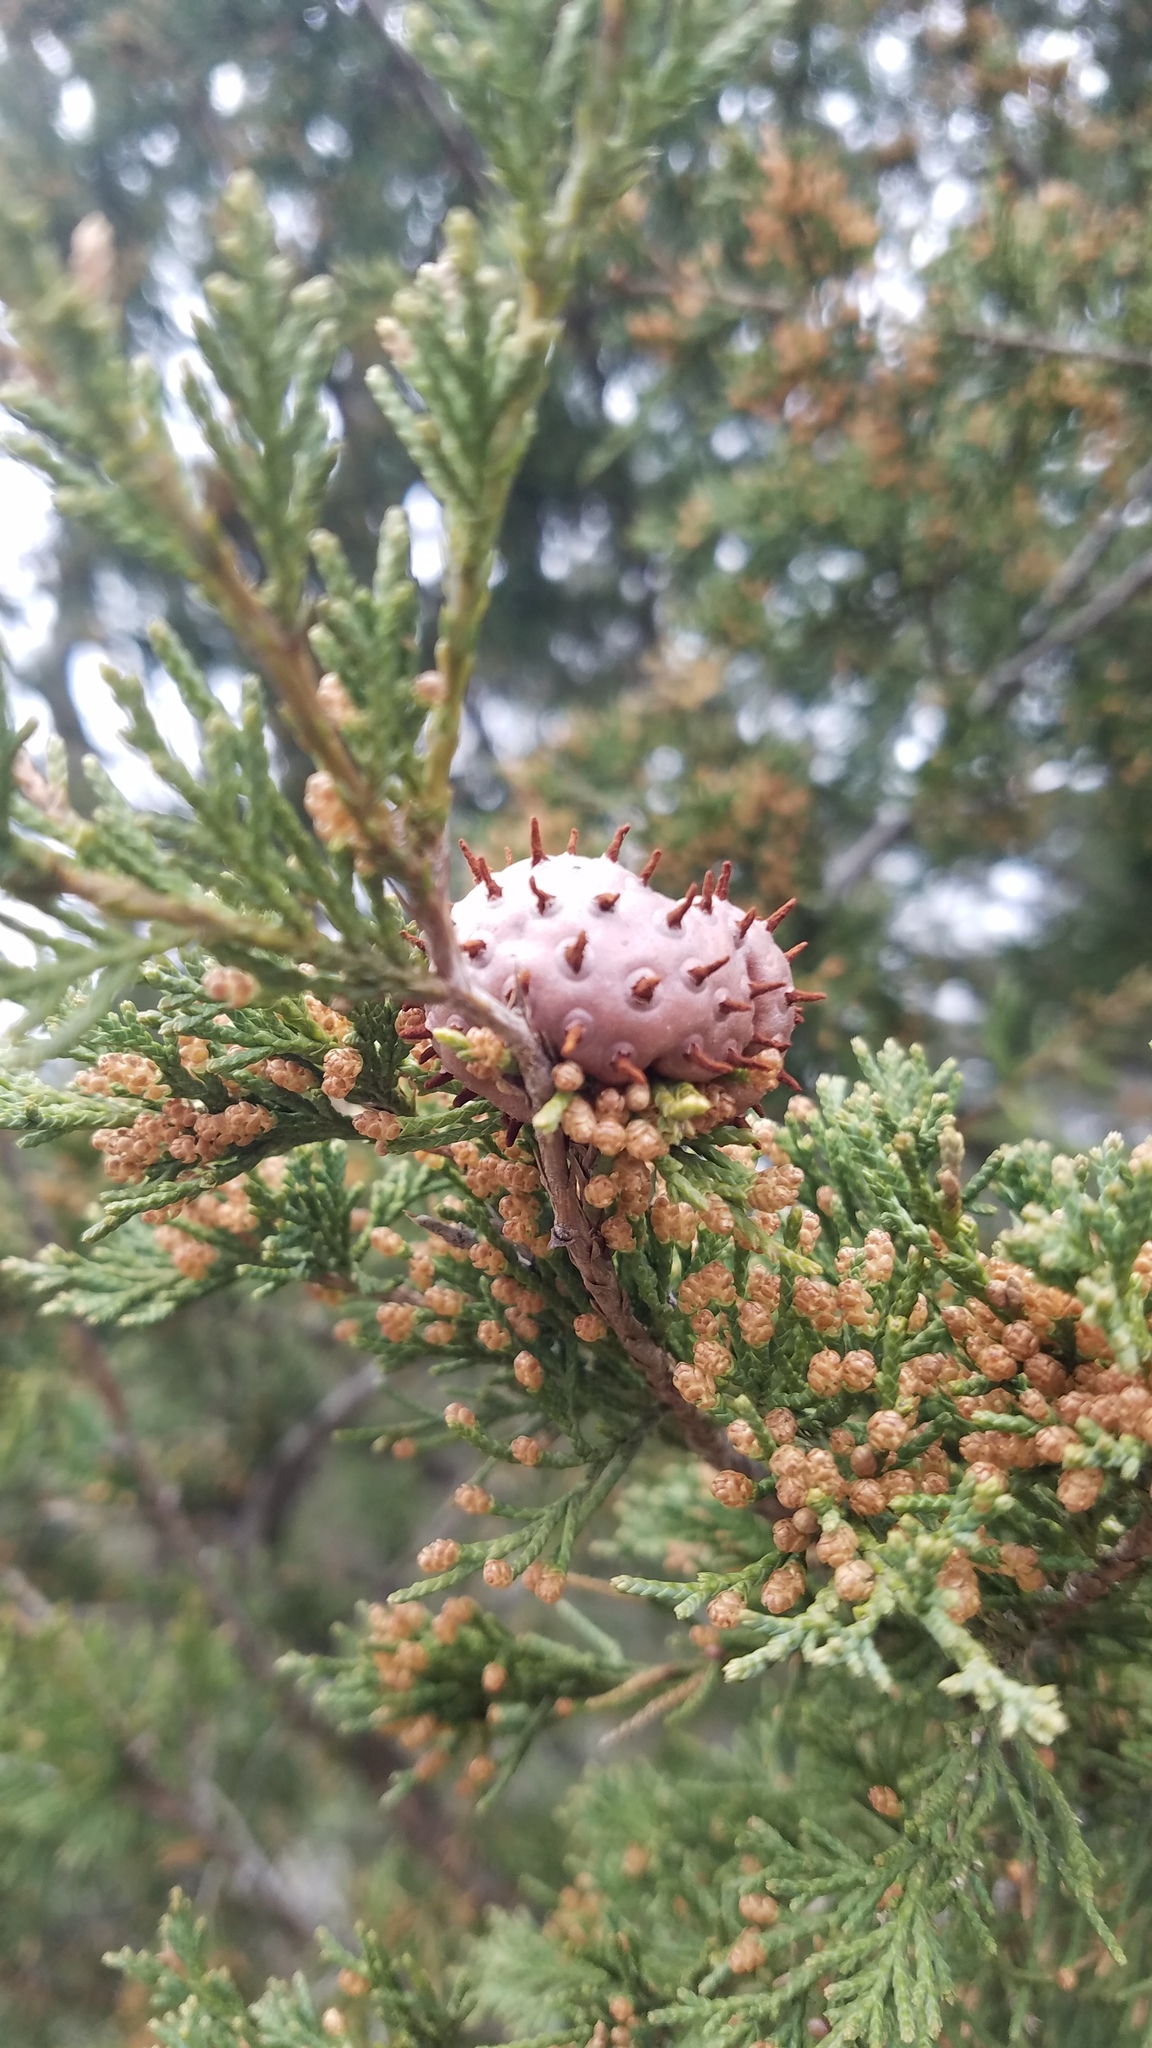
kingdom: Fungi
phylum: Basidiomycota
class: Pucciniomycetes
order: Pucciniales
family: Gymnosporangiaceae
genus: Gymnosporangium
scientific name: Gymnosporangium juniperi-virginianae
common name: Juniper-apple rust
